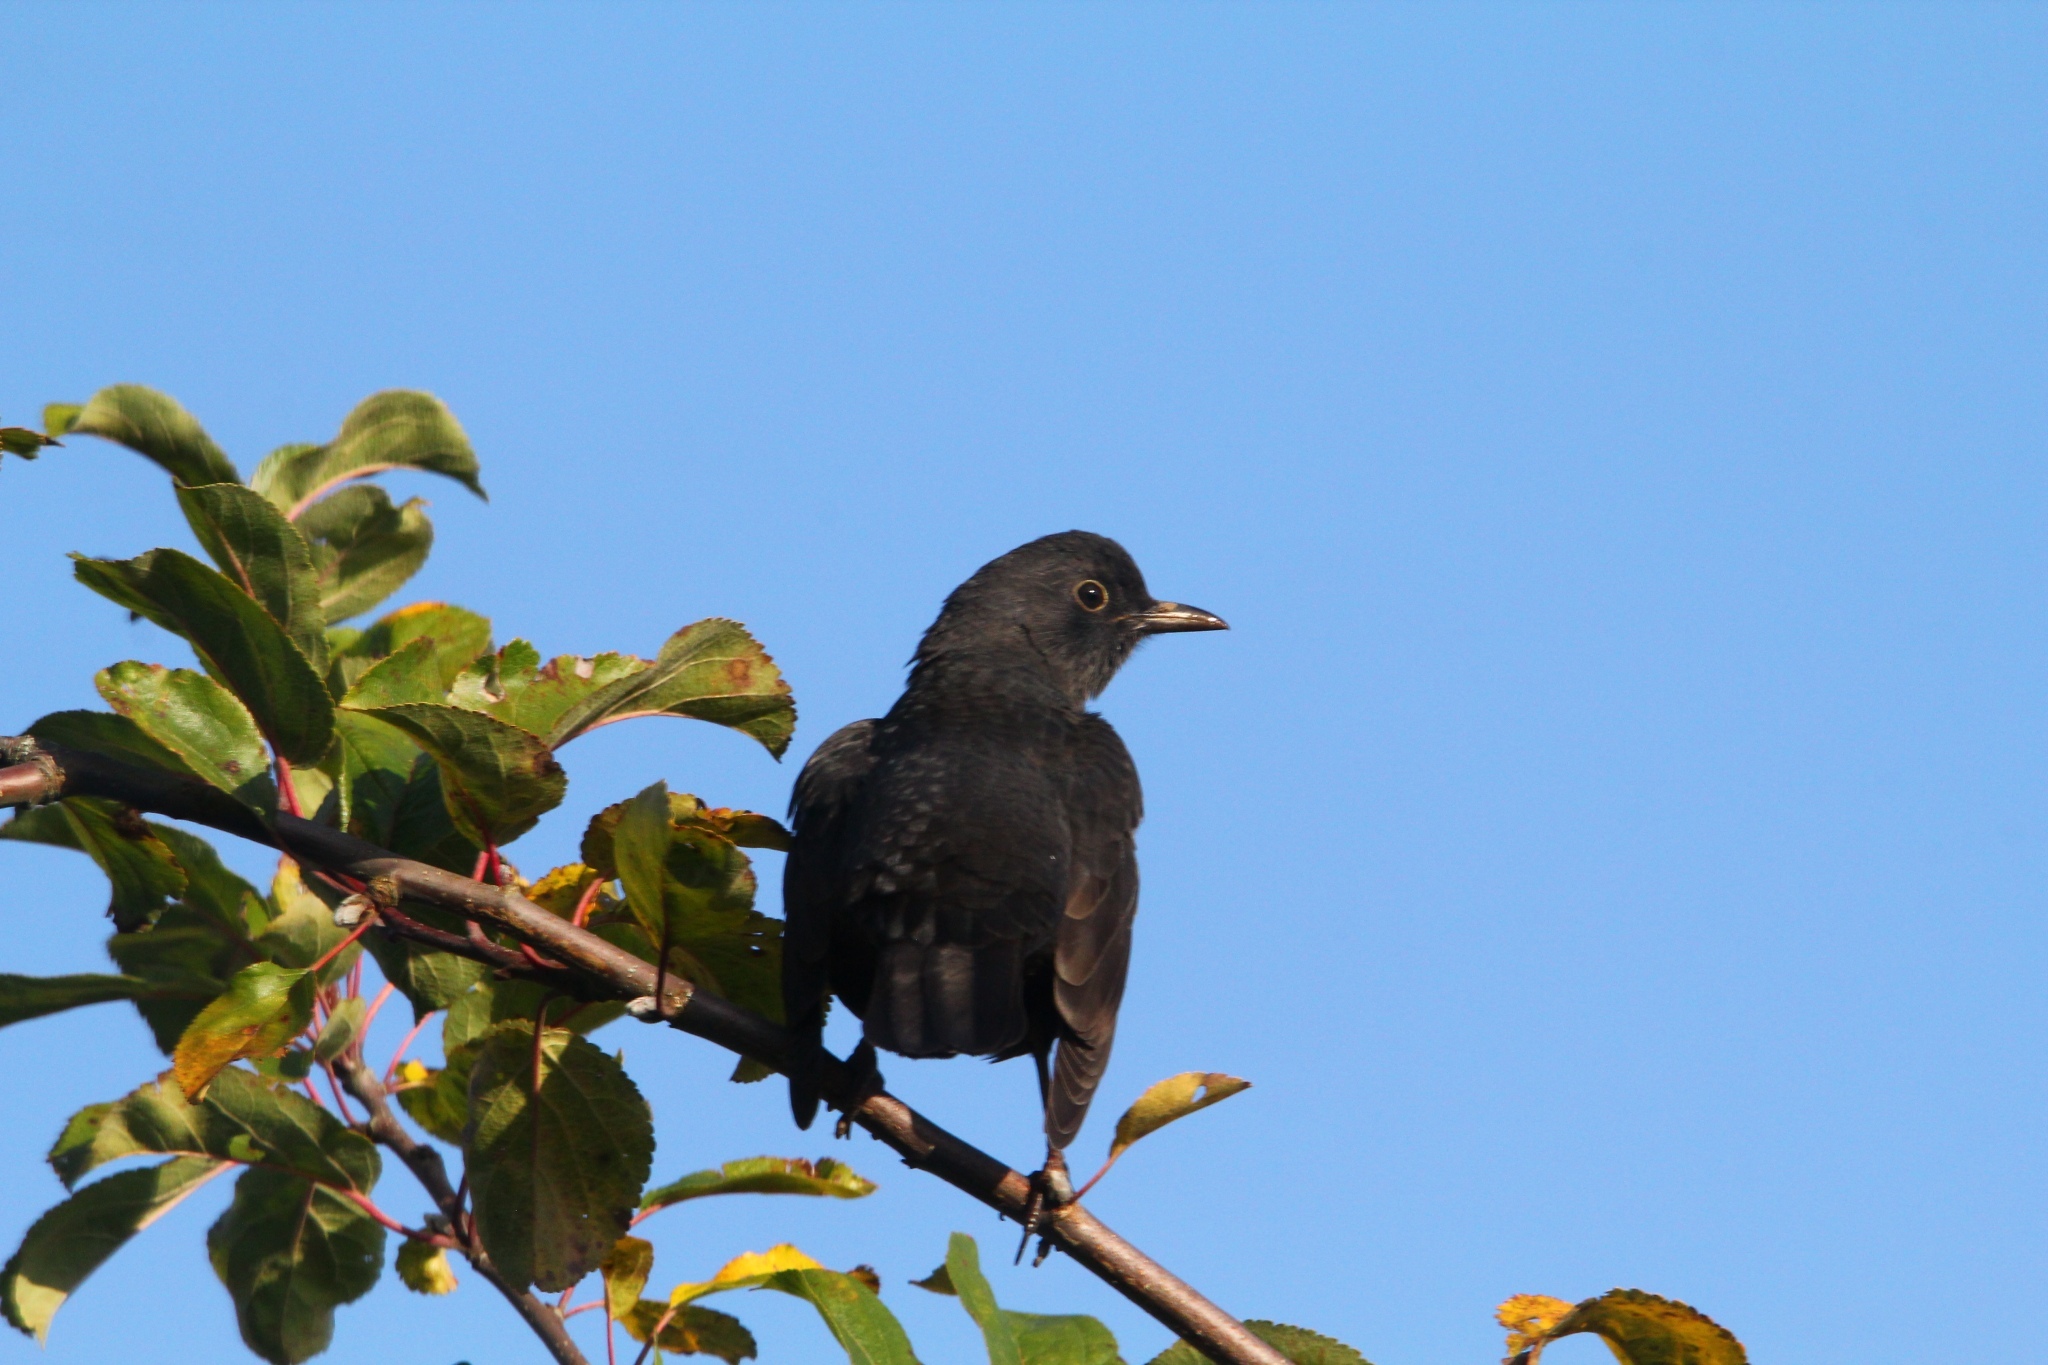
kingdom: Animalia
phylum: Chordata
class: Aves
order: Passeriformes
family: Turdidae
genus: Turdus
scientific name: Turdus merula
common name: Common blackbird
